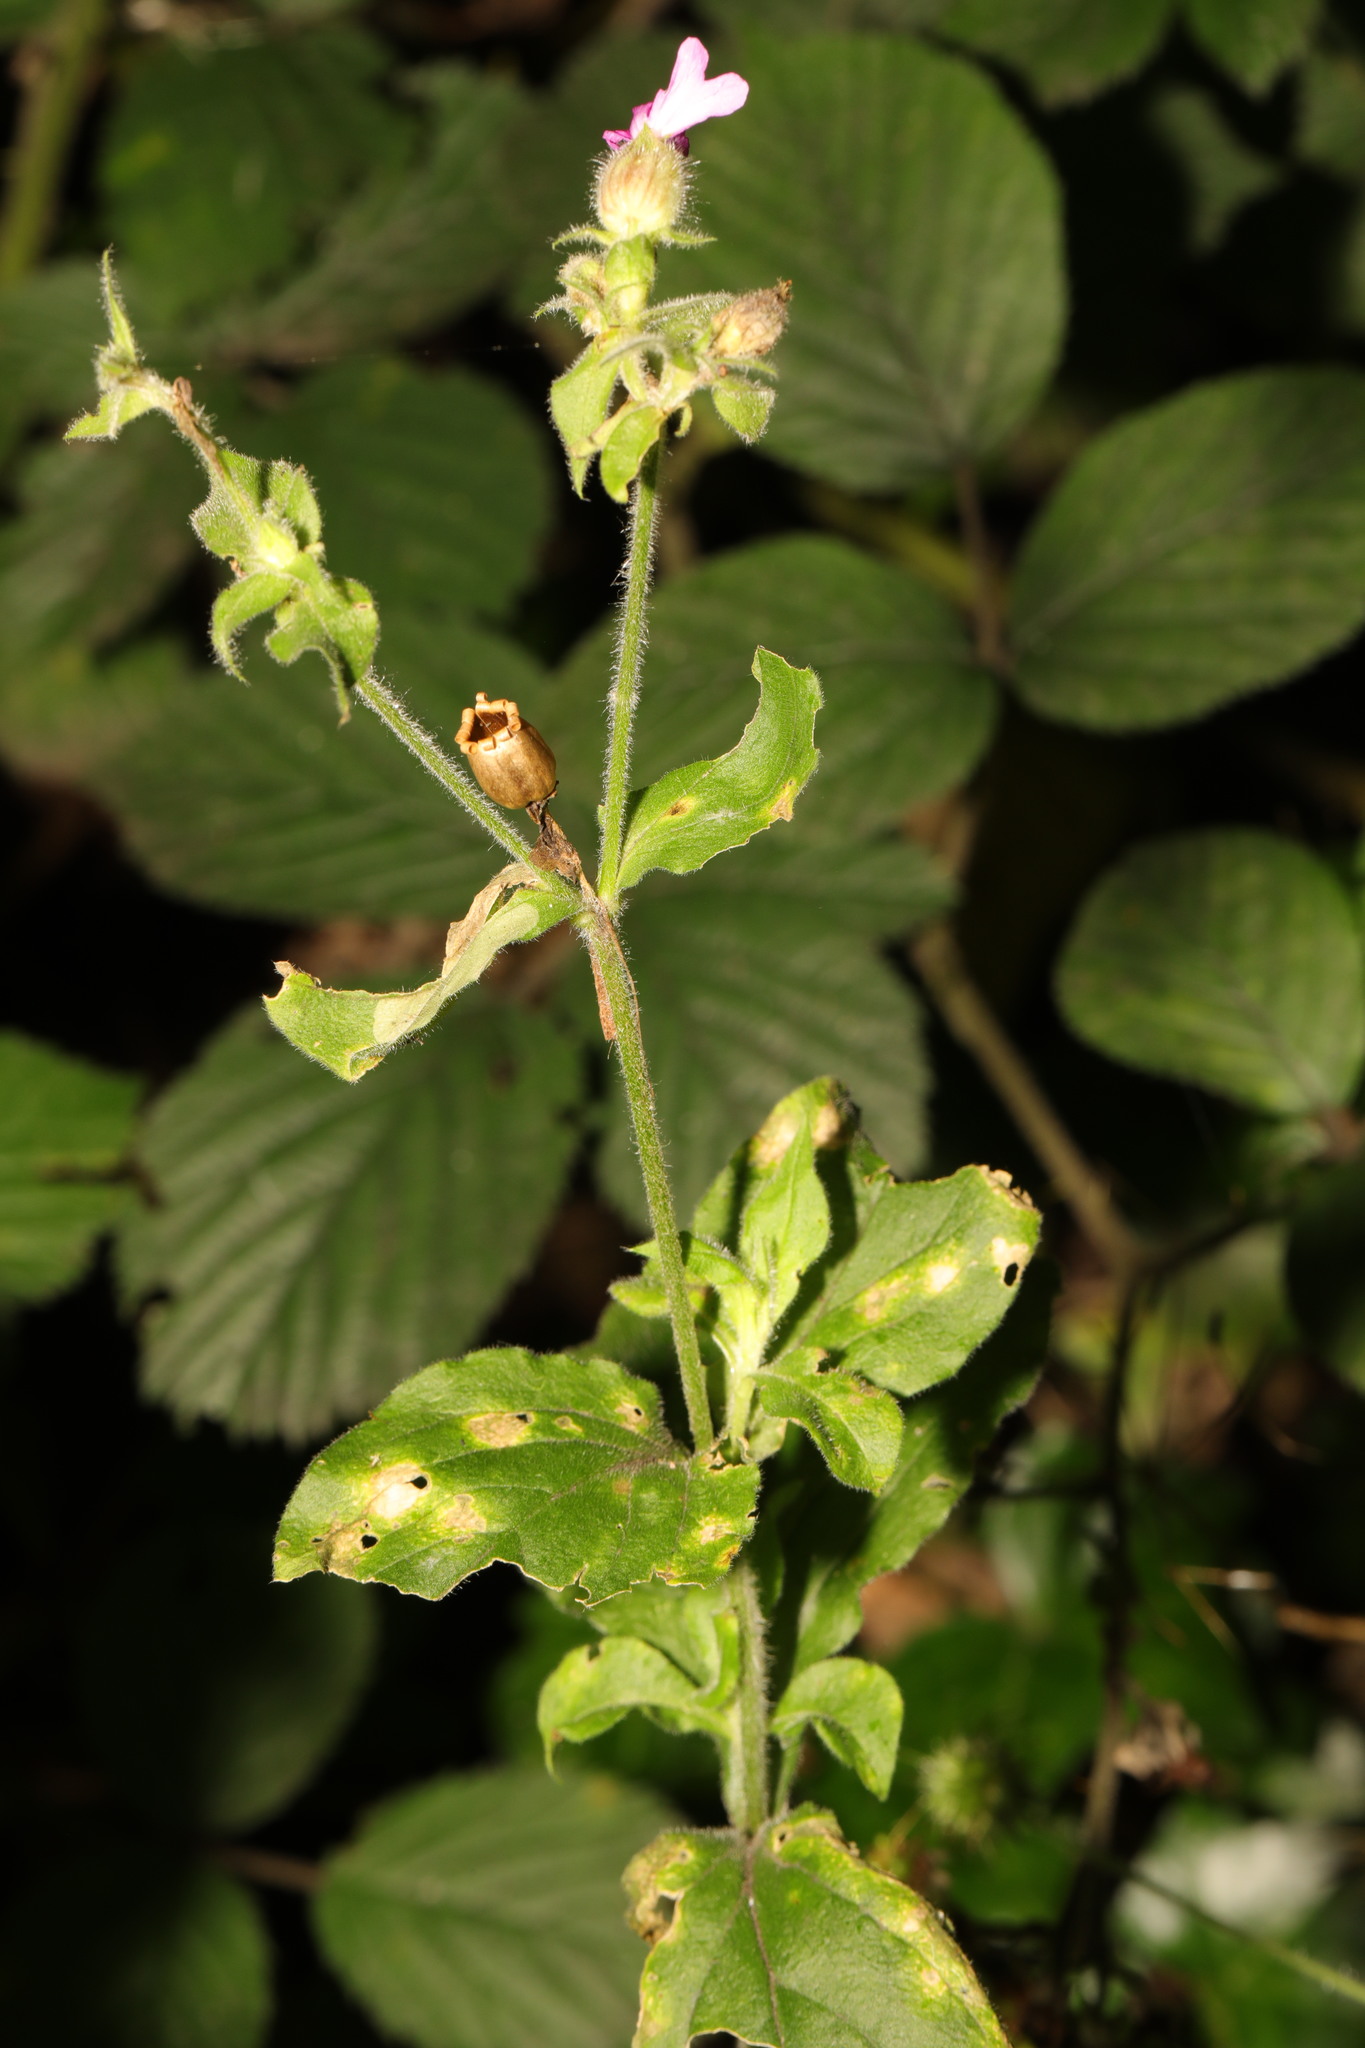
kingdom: Plantae
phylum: Tracheophyta
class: Magnoliopsida
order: Caryophyllales
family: Caryophyllaceae
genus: Silene
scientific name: Silene dioica
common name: Red campion
